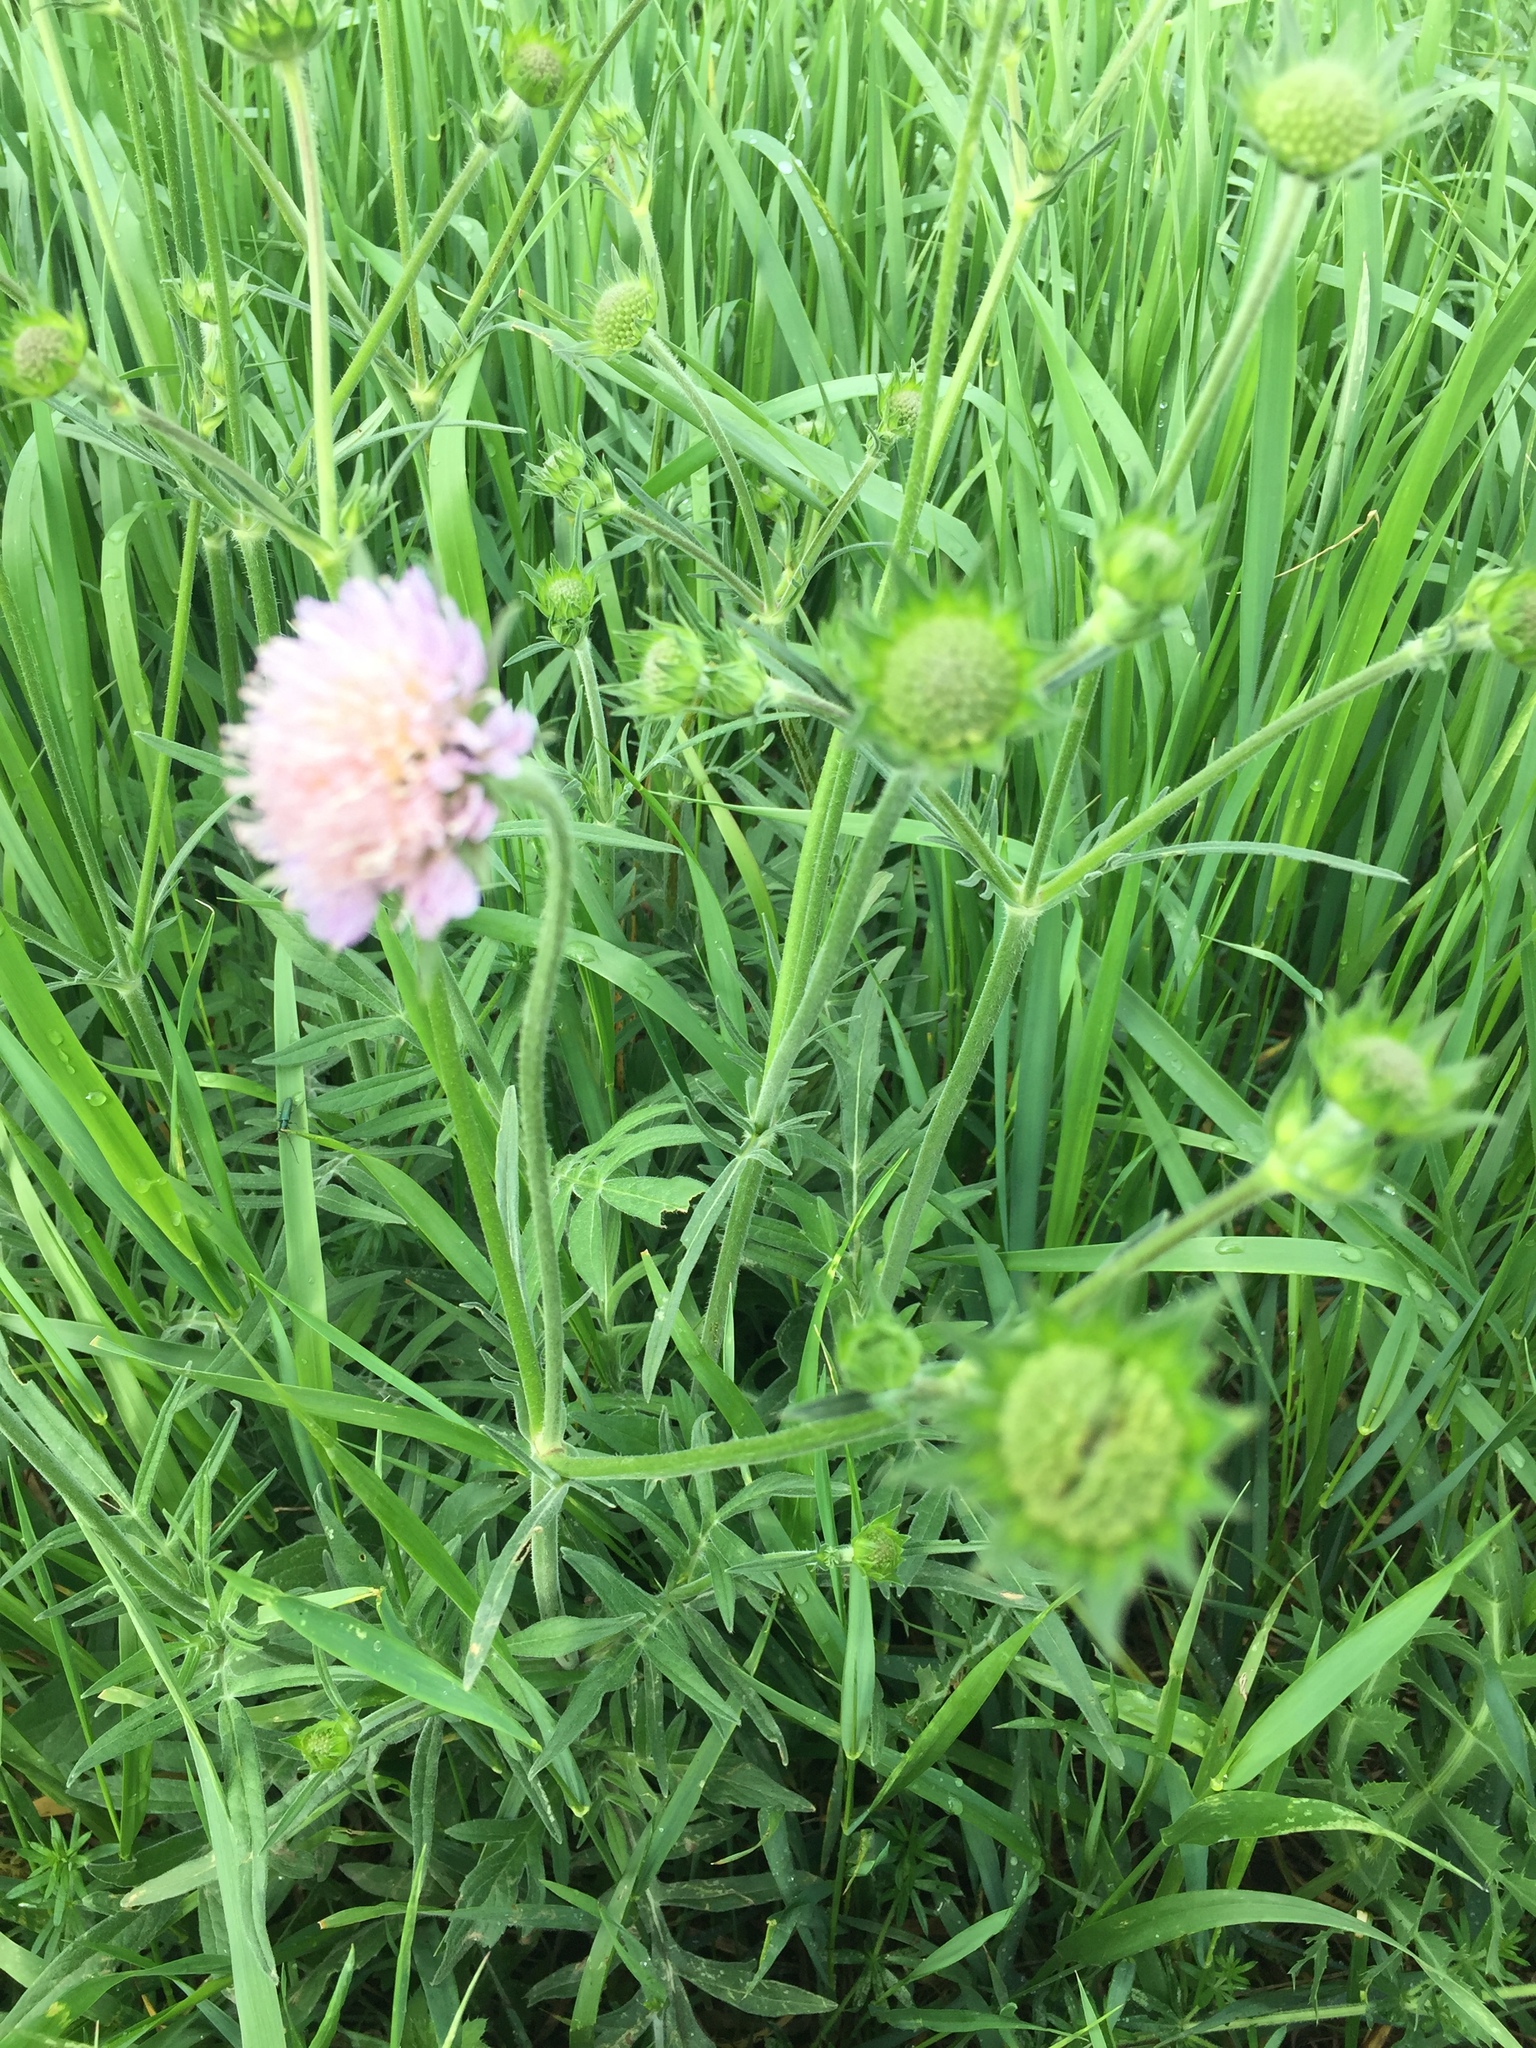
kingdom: Plantae
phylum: Tracheophyta
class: Magnoliopsida
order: Dipsacales
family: Caprifoliaceae
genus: Knautia
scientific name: Knautia arvensis
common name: Field scabiosa
